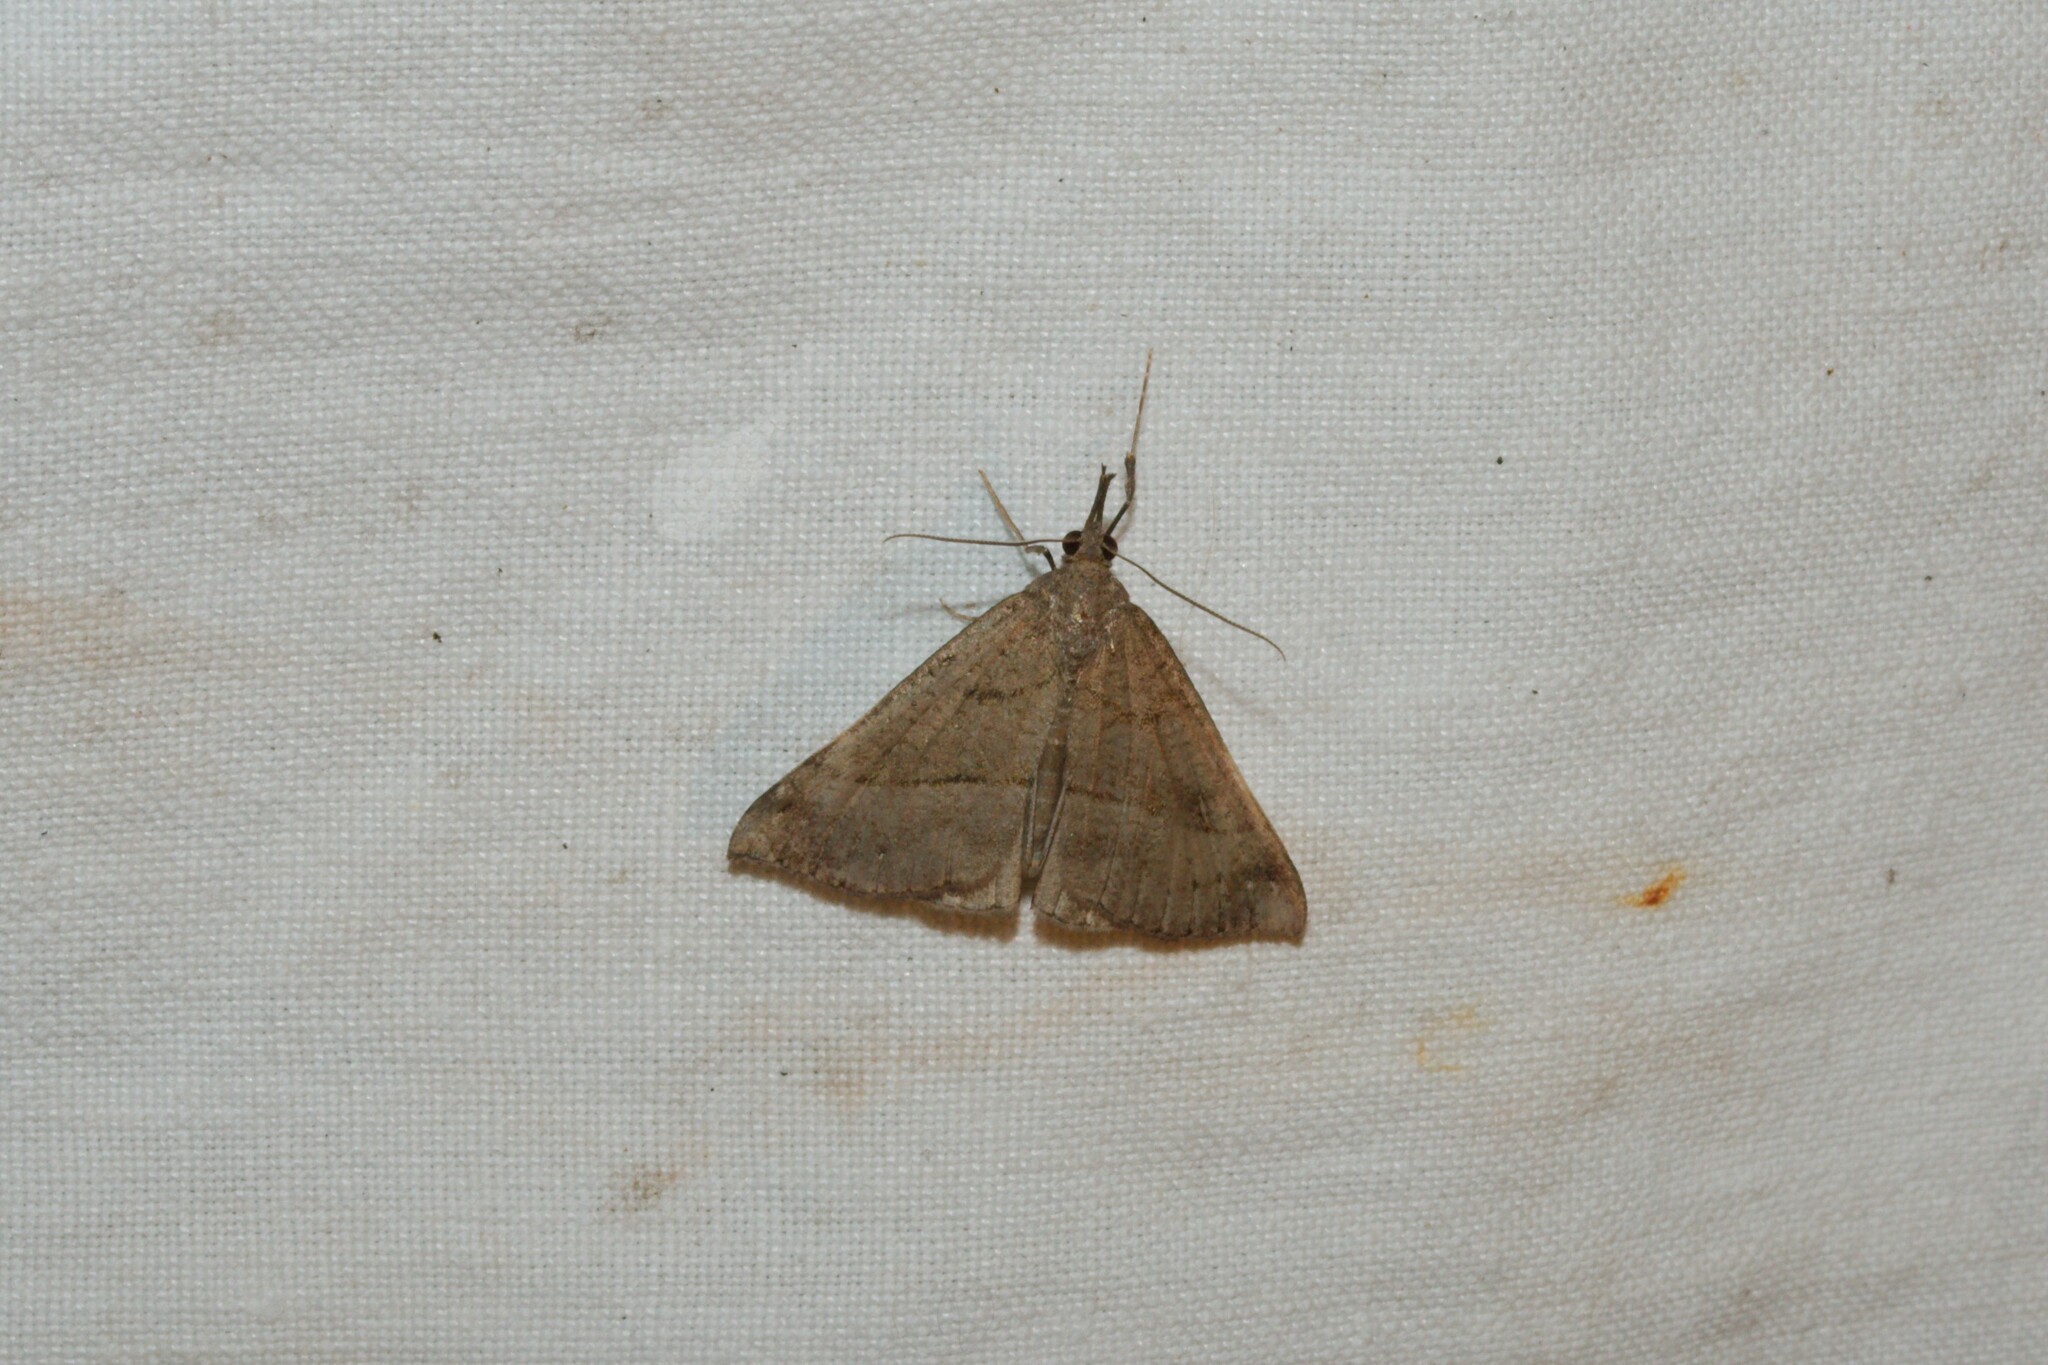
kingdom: Animalia
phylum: Arthropoda
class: Insecta
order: Lepidoptera
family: Erebidae
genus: Hypena
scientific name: Hypena proboscidalis
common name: Snout
